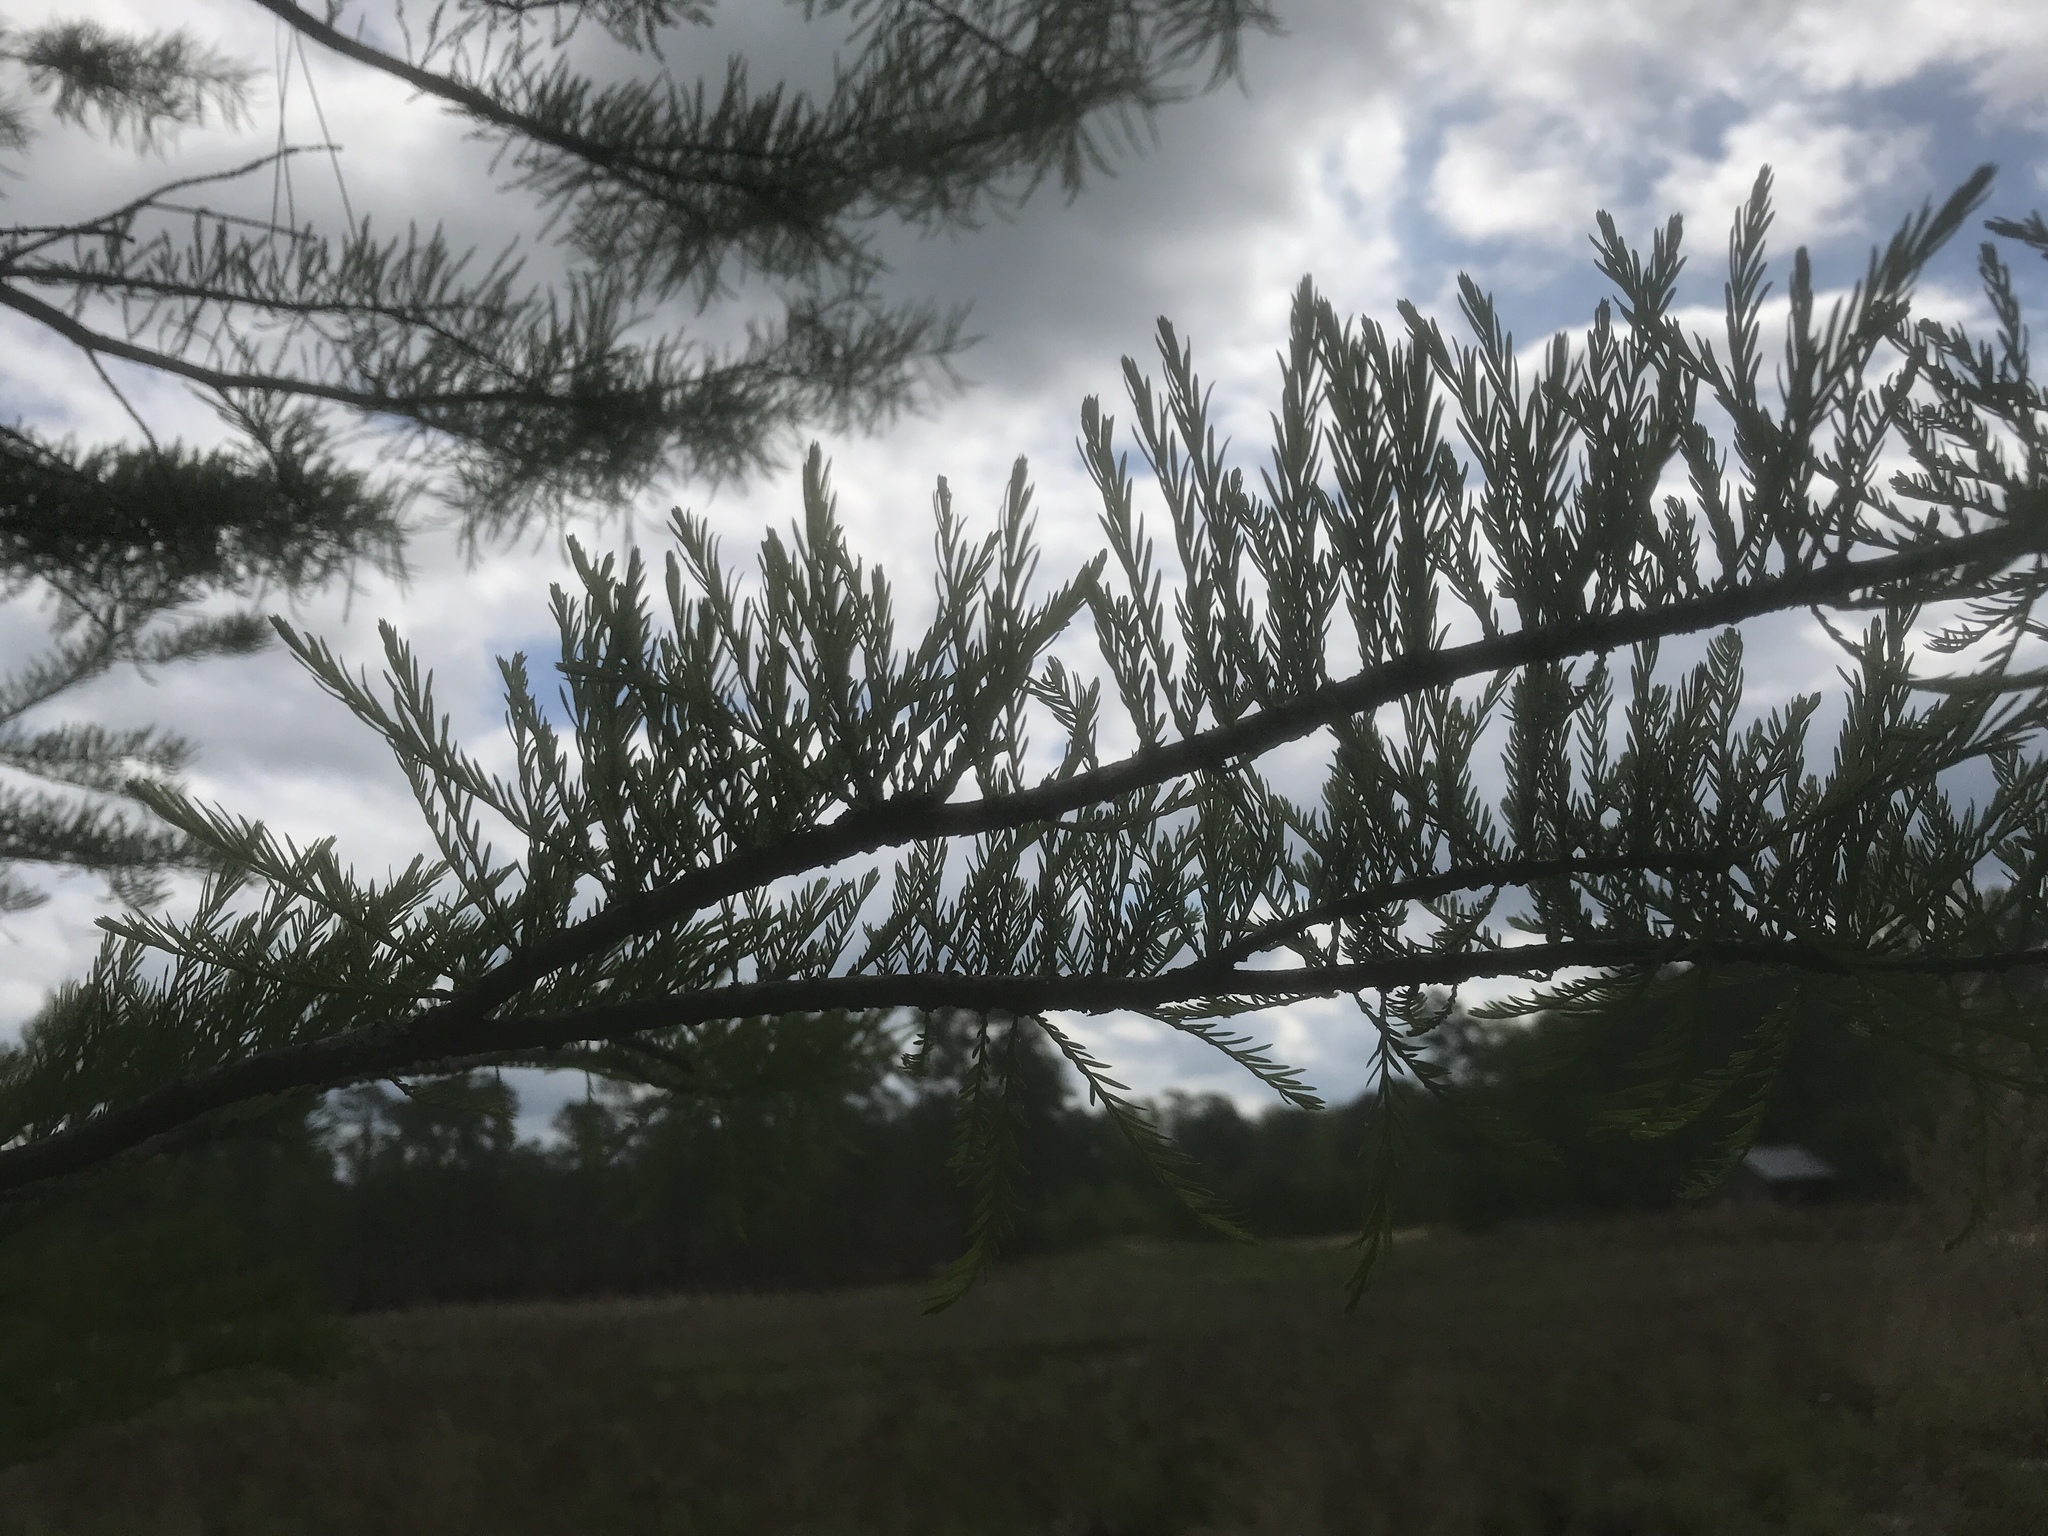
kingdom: Plantae
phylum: Tracheophyta
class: Pinopsida
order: Pinales
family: Cupressaceae
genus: Taxodium
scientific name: Taxodium distichum
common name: Bald cypress
